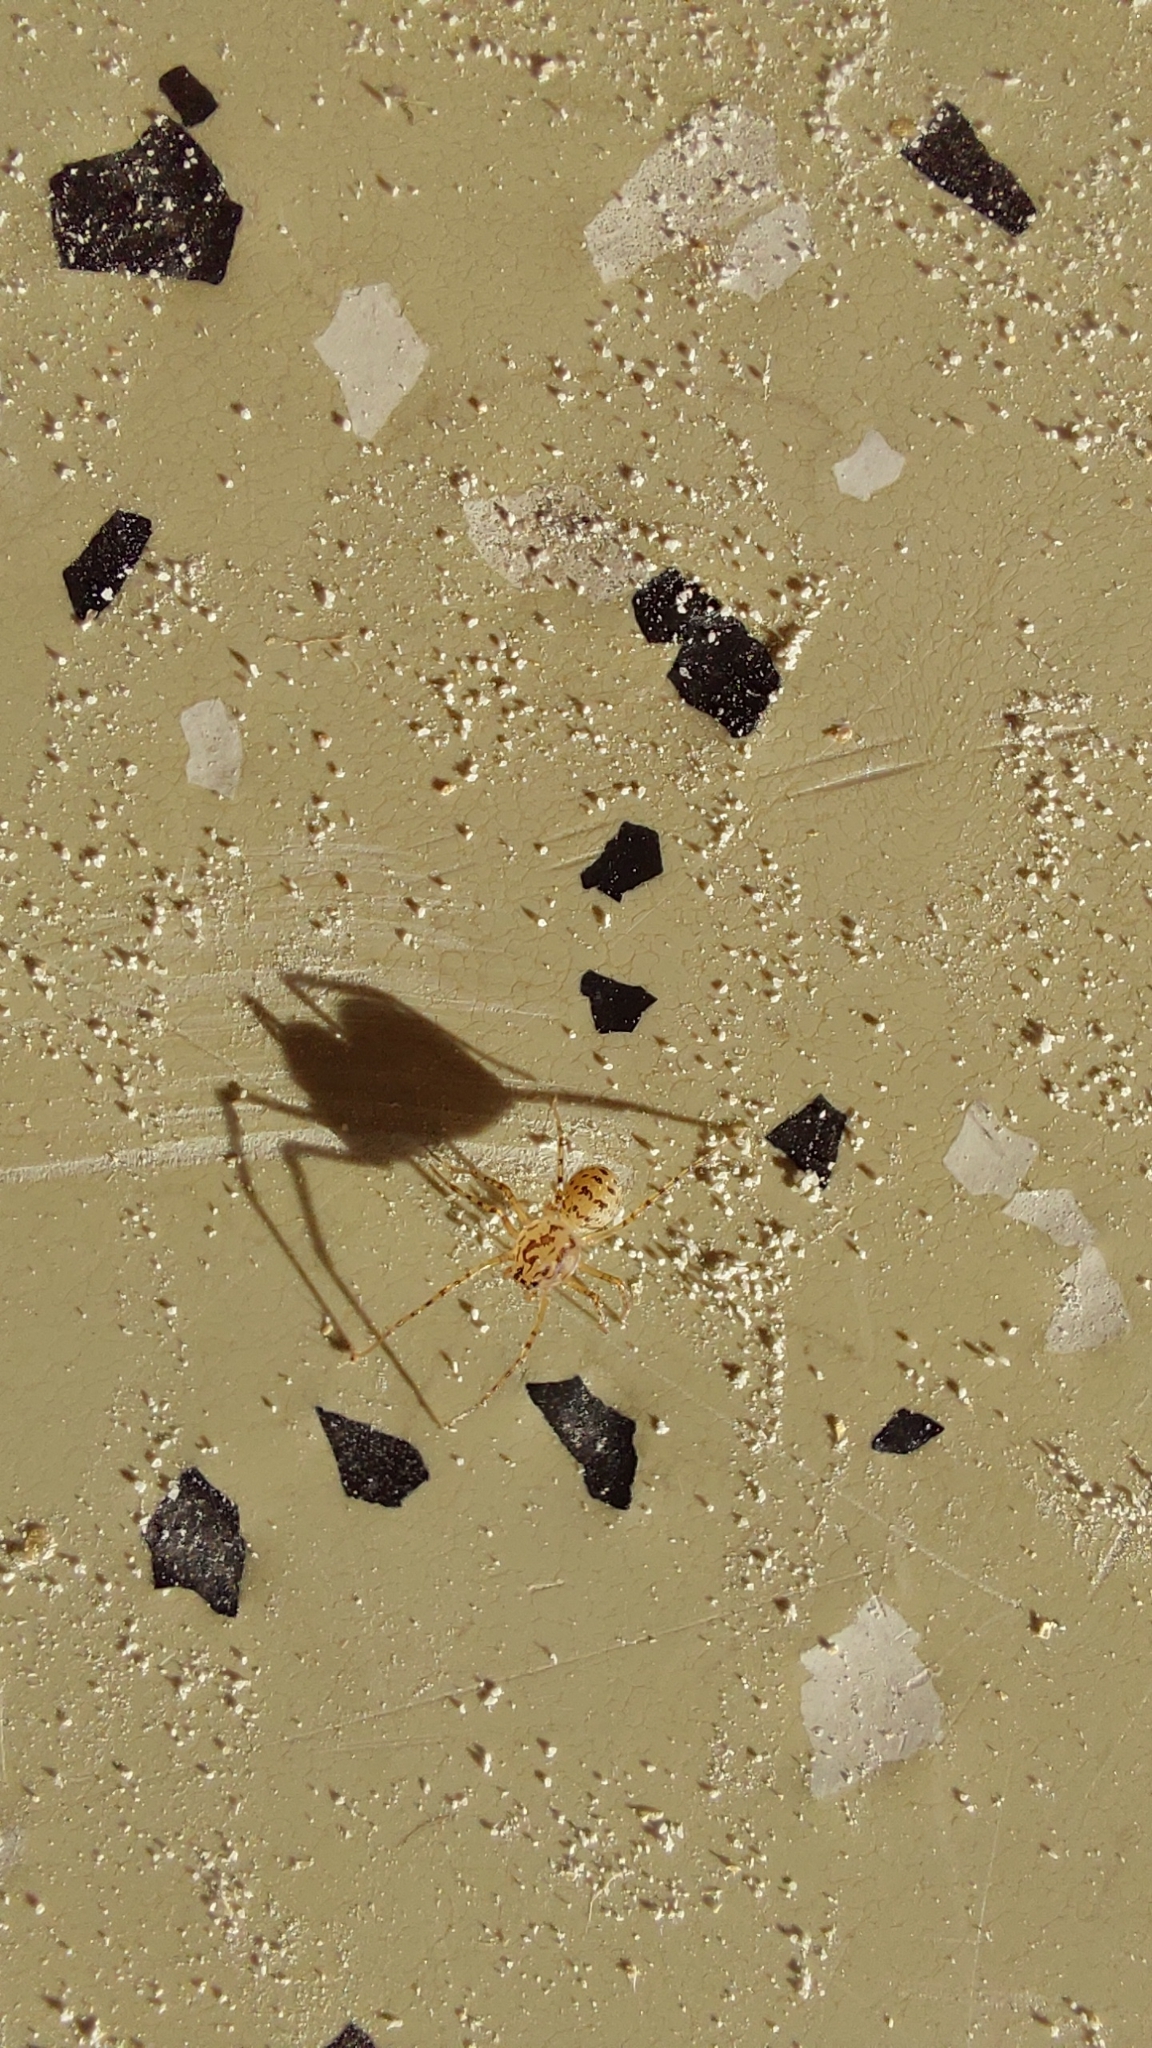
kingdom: Animalia
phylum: Arthropoda
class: Arachnida
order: Araneae
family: Scytodidae
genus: Scytodes
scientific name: Scytodes thoracica
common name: Spitting spider
